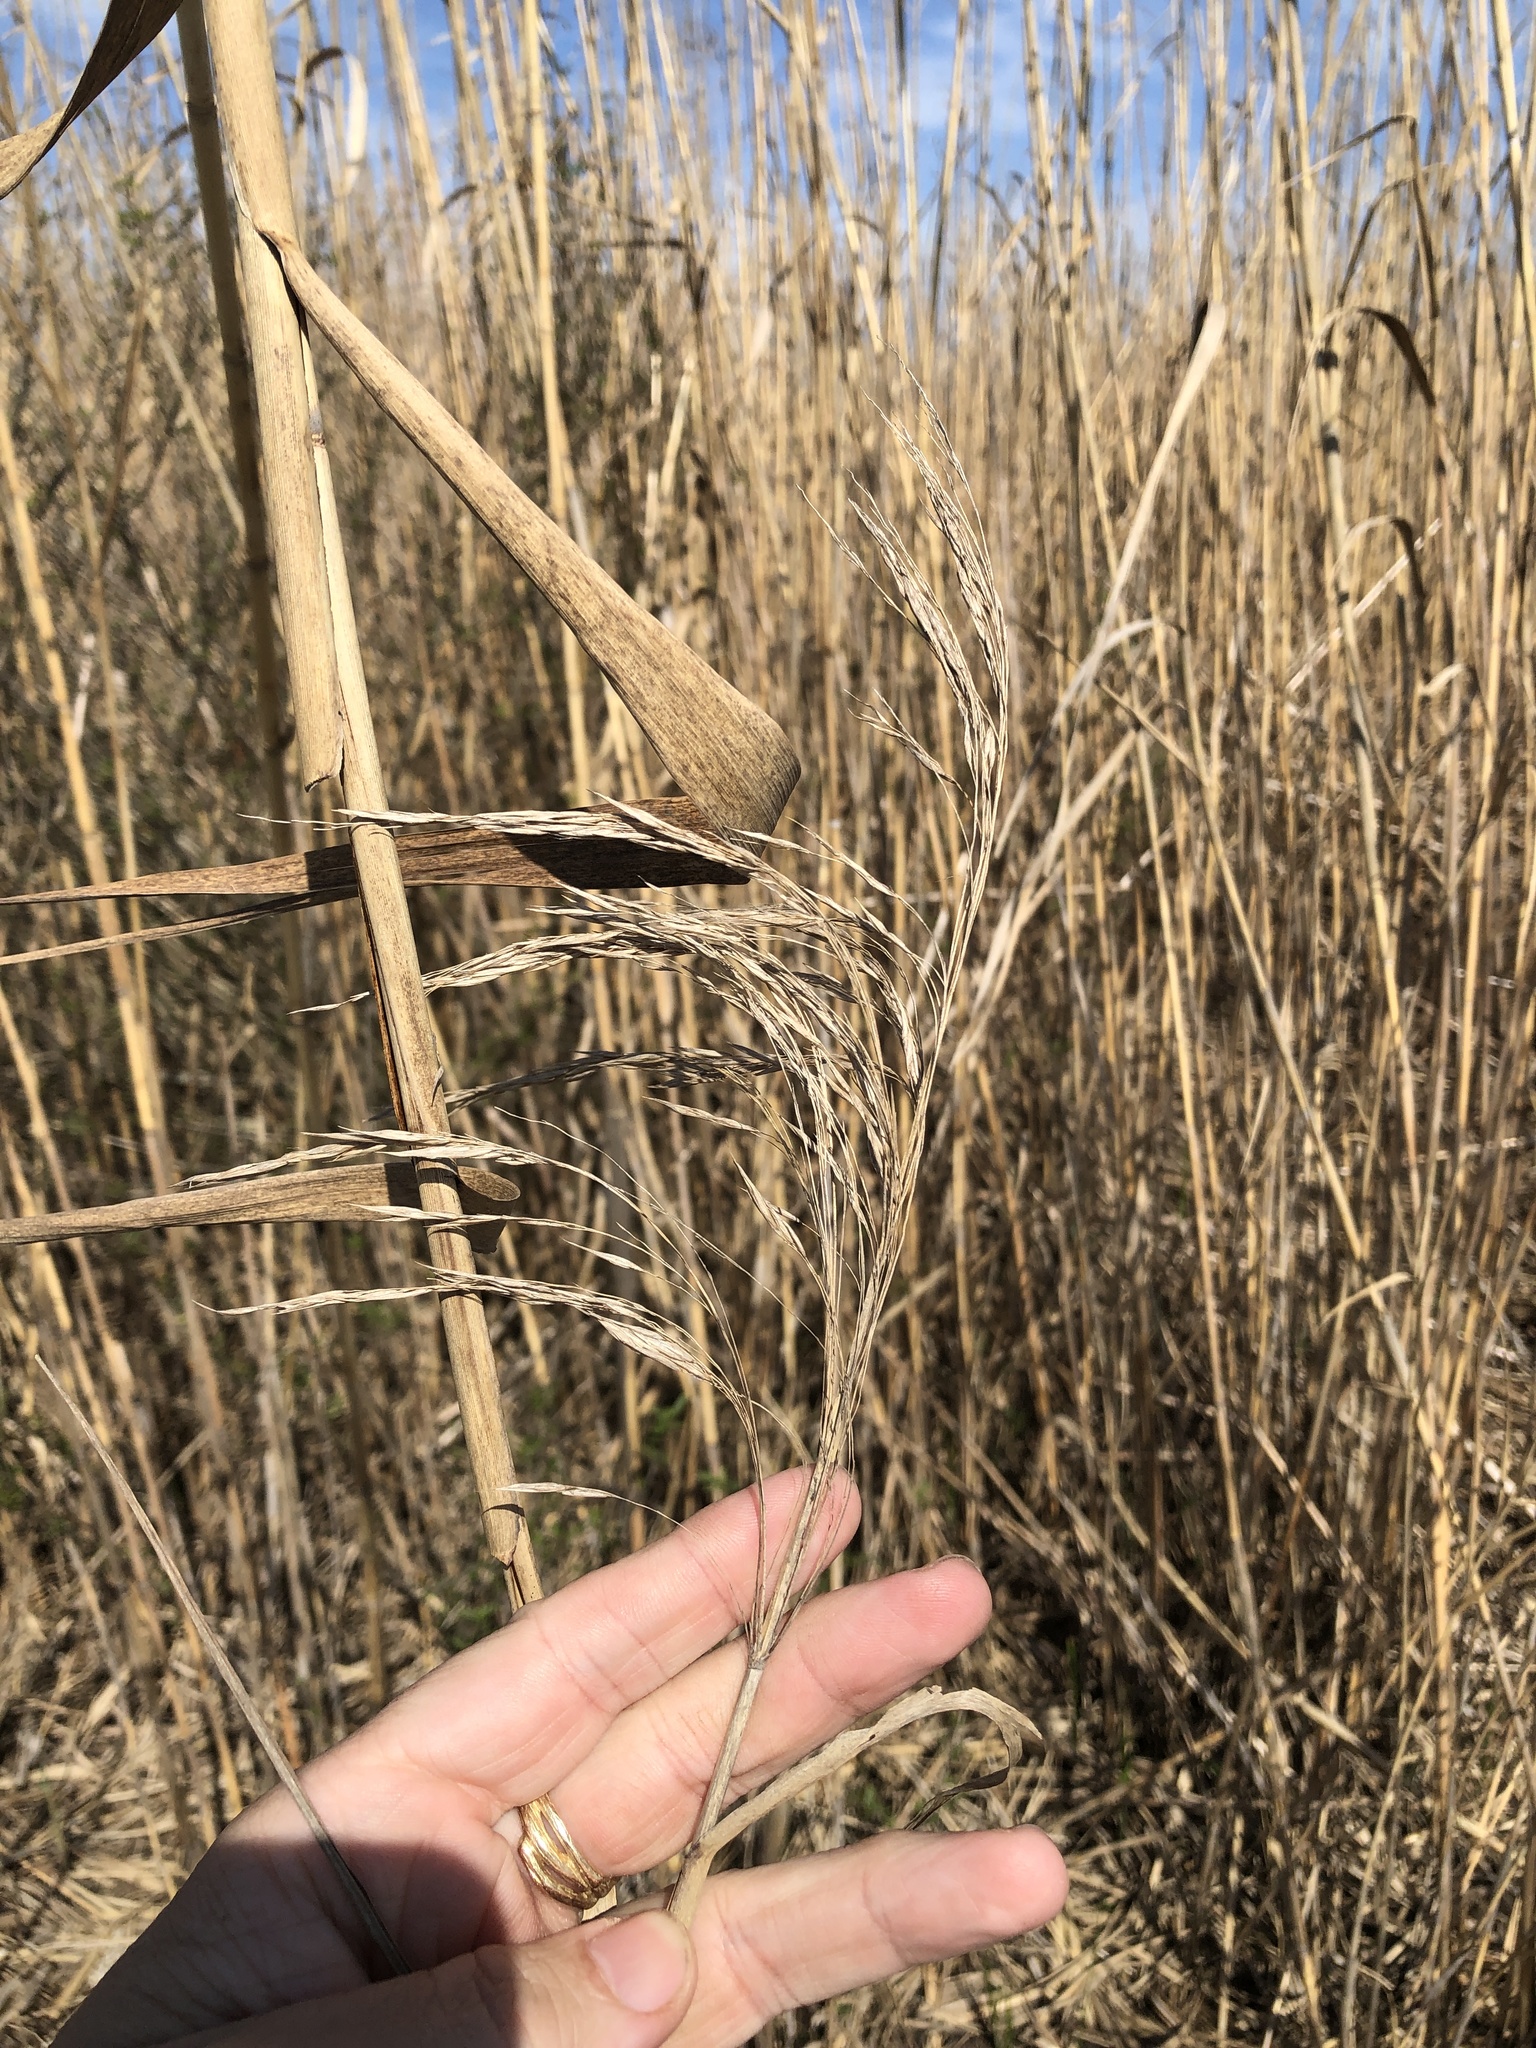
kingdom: Plantae
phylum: Tracheophyta
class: Liliopsida
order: Poales
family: Poaceae
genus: Phragmites
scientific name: Phragmites australis
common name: Common reed
